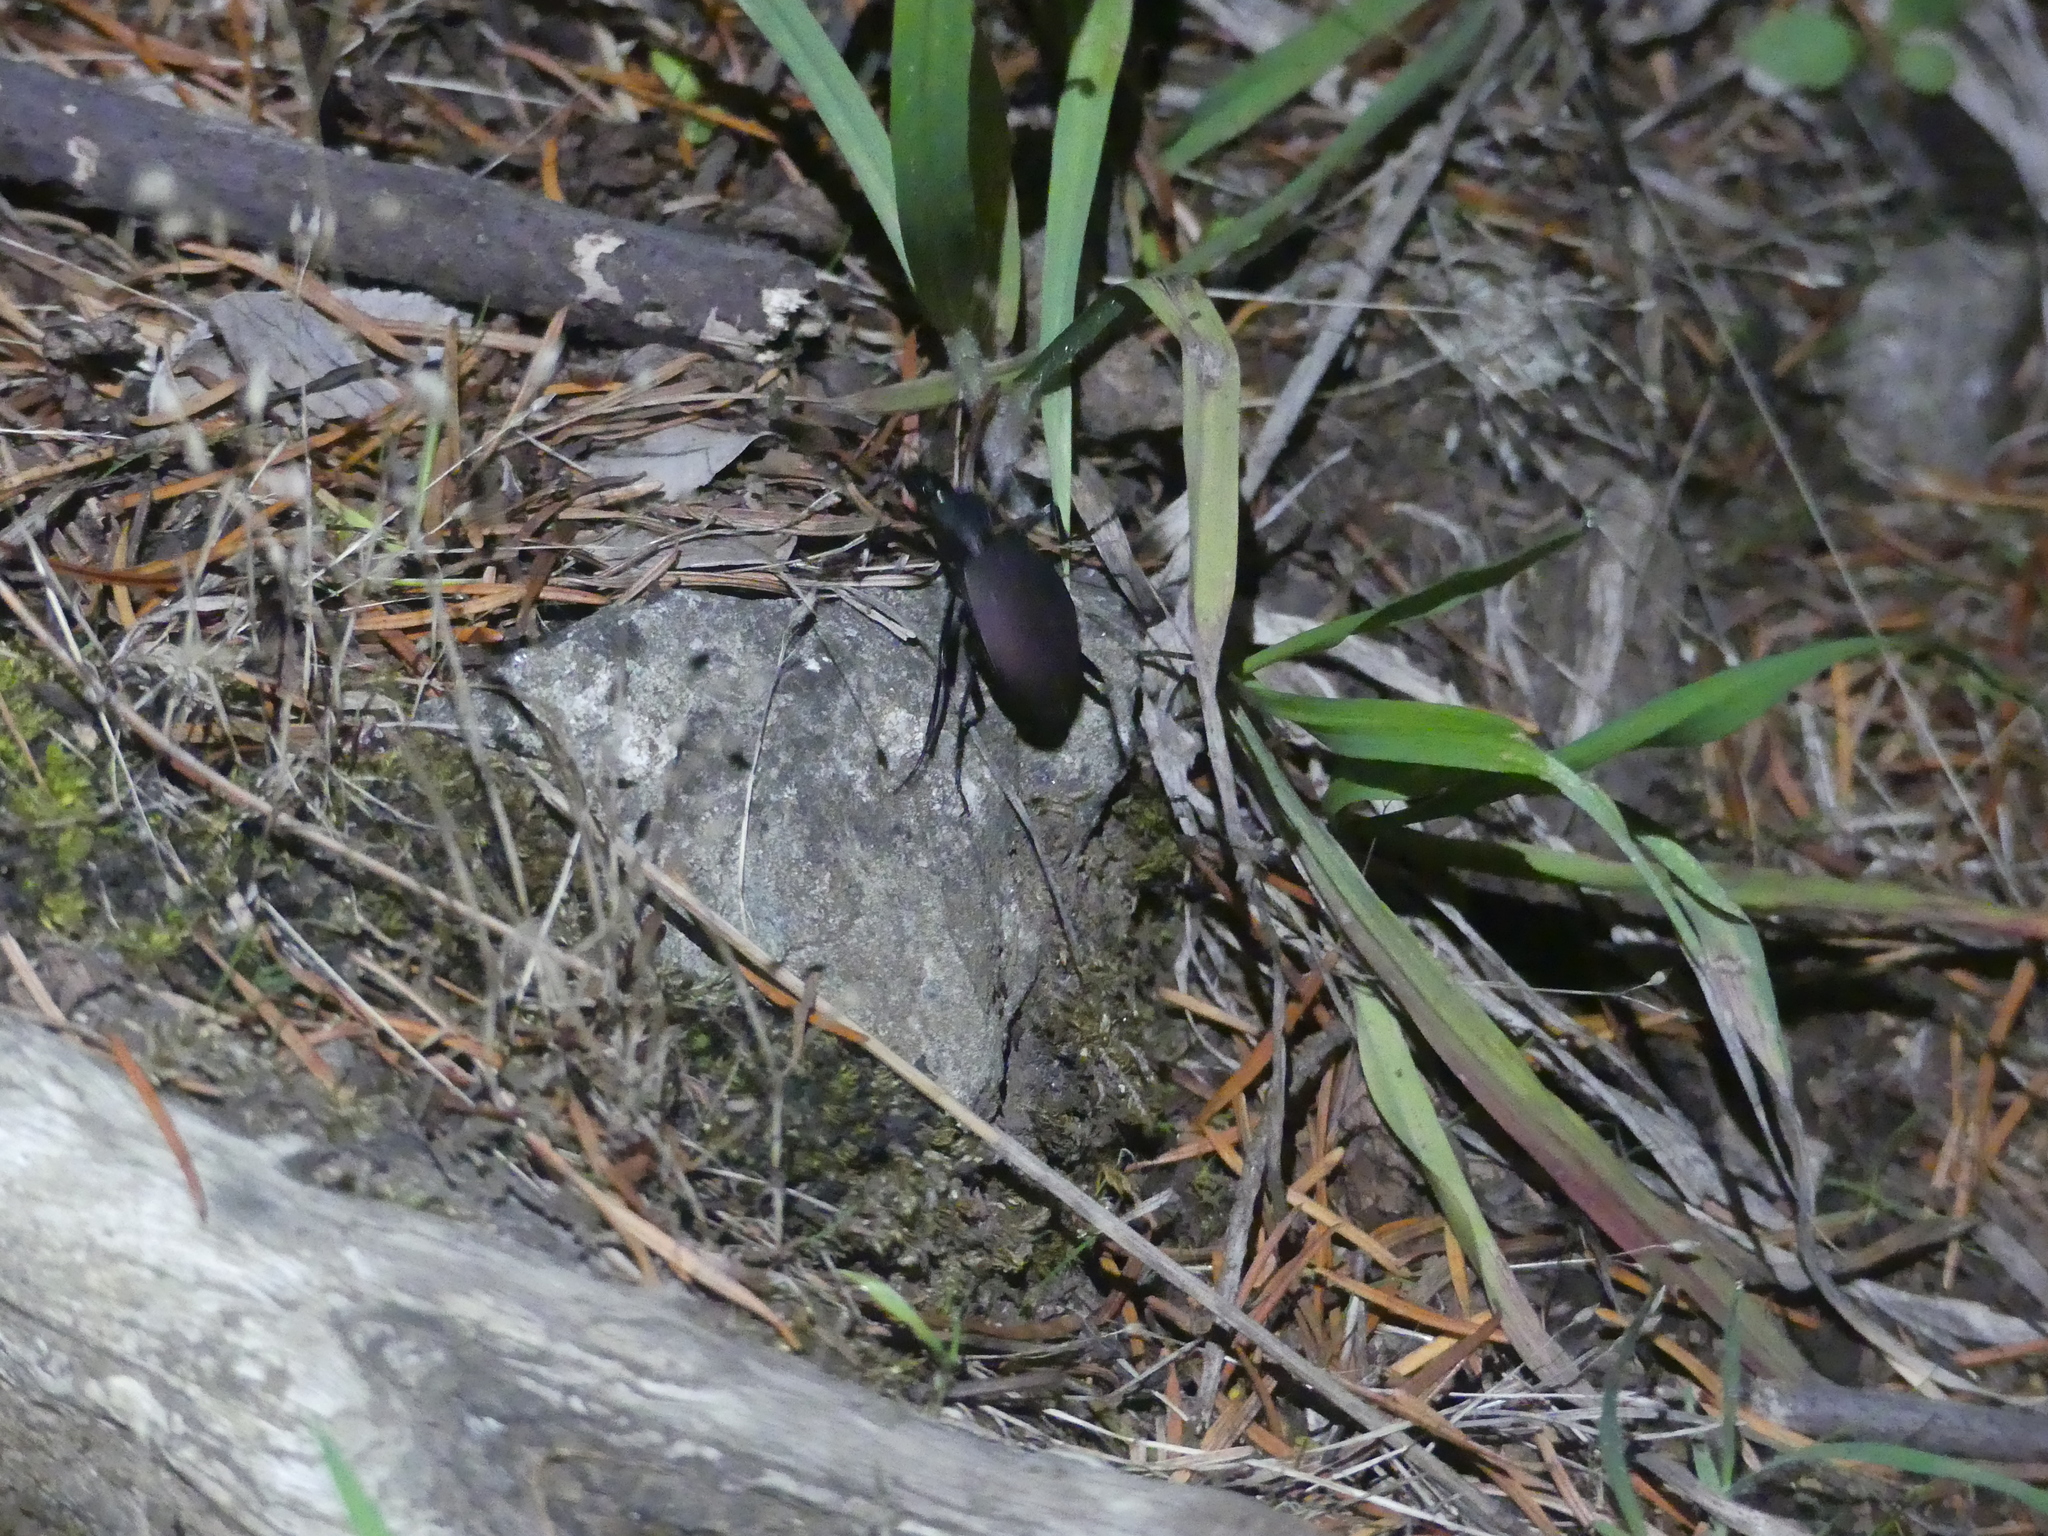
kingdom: Animalia
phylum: Arthropoda
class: Insecta
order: Coleoptera
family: Carabidae
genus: Scaphinotus
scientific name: Scaphinotus angusticollis
